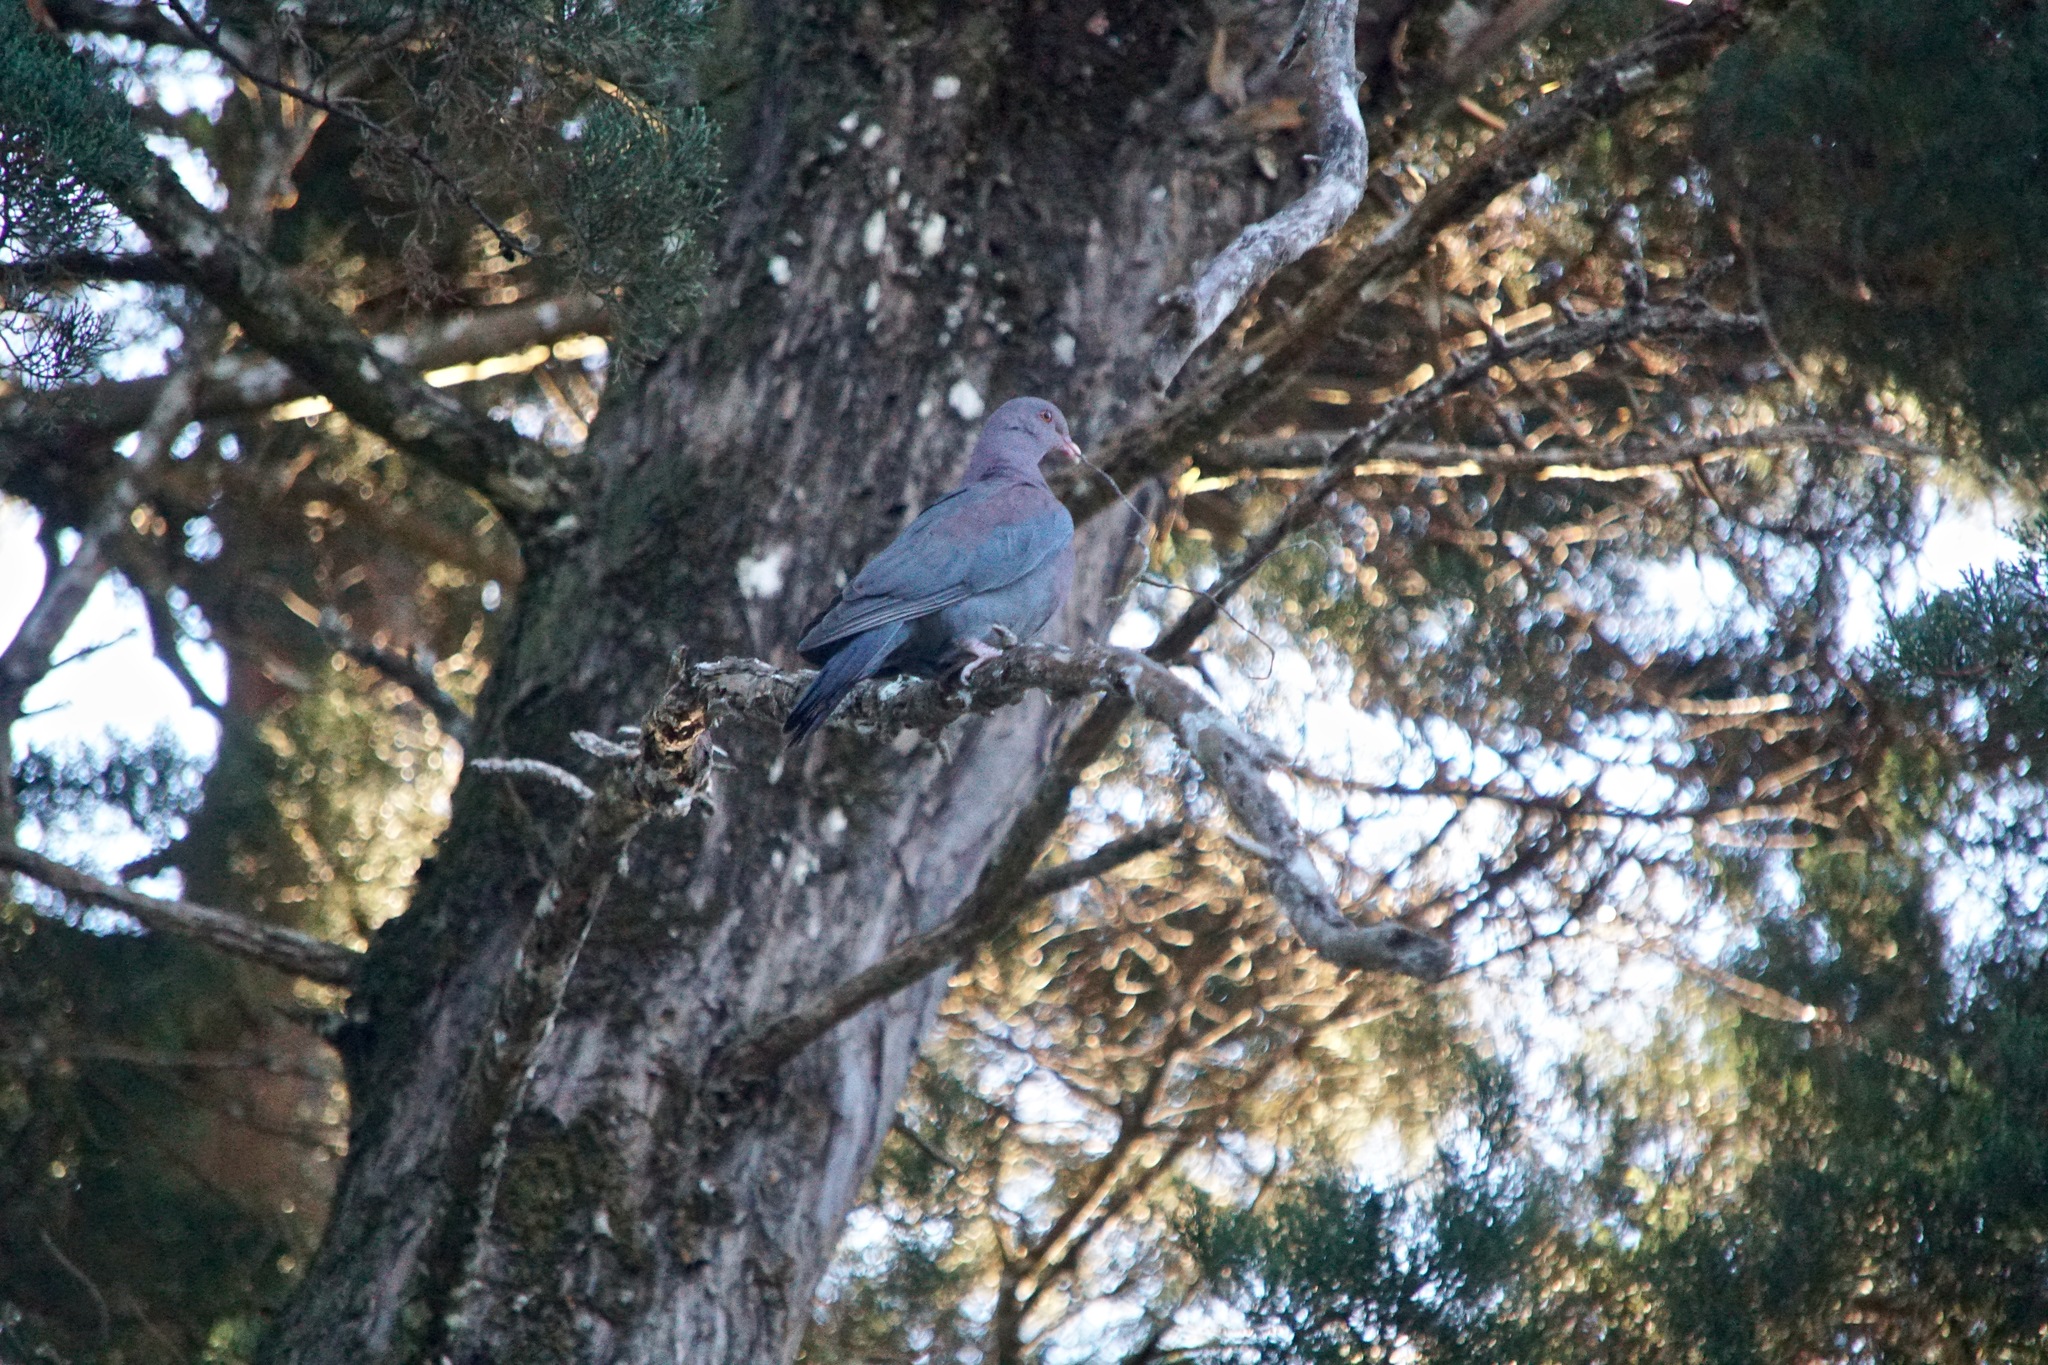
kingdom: Animalia
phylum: Chordata
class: Aves
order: Columbiformes
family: Columbidae
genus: Patagioenas
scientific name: Patagioenas flavirostris
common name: Red-billed pigeon
